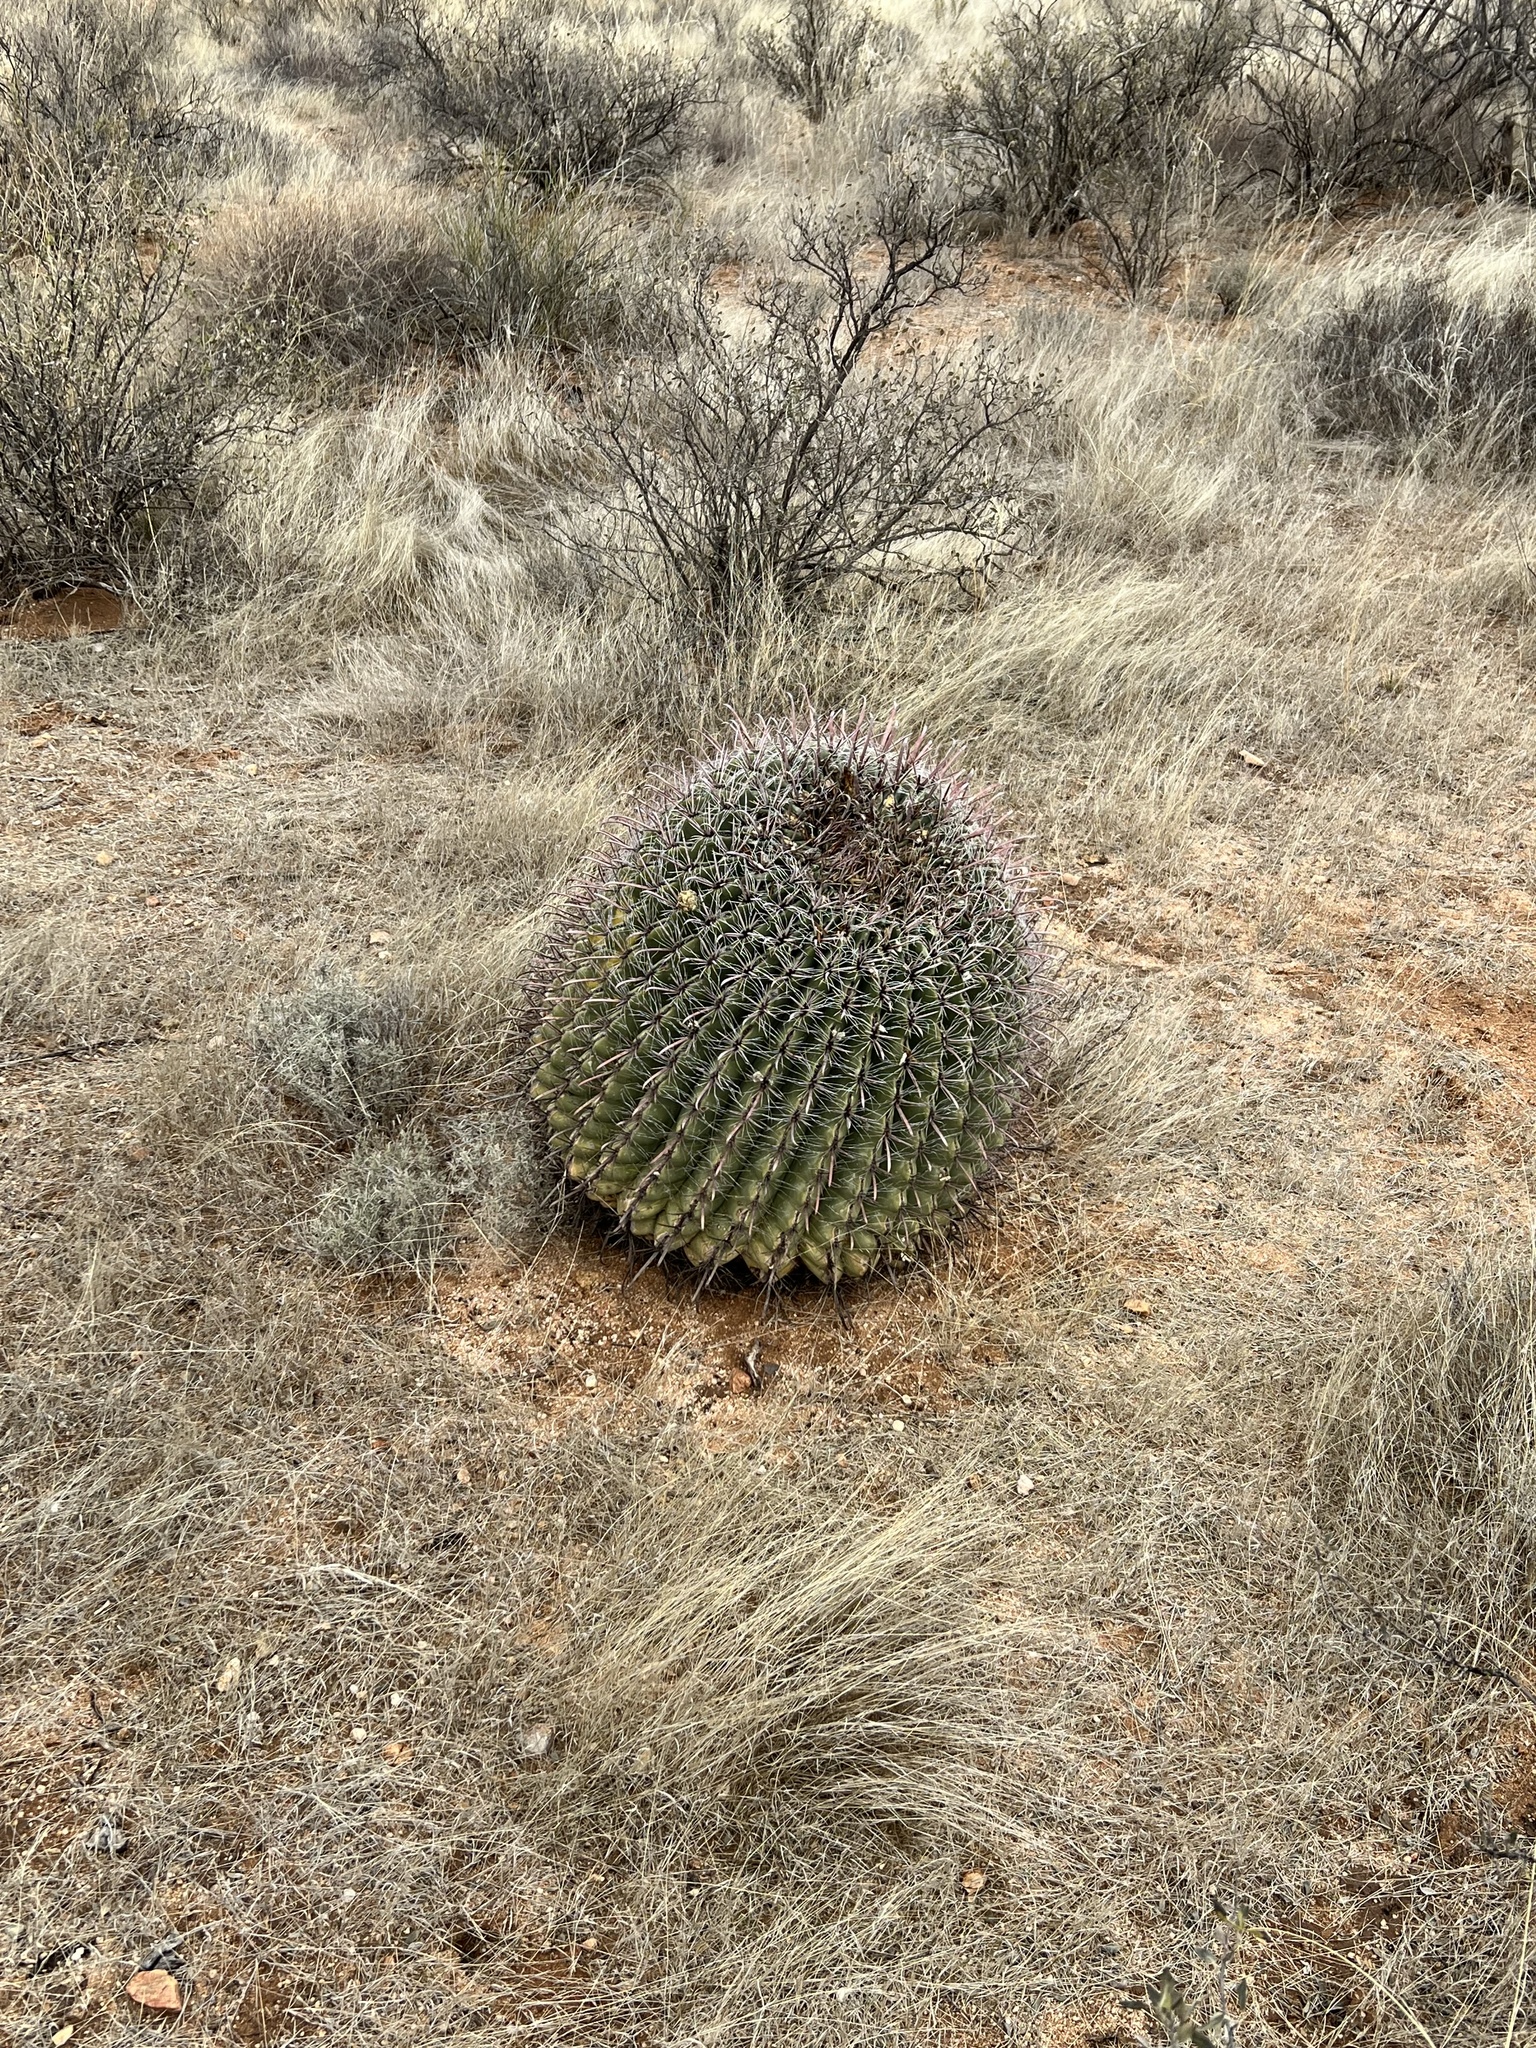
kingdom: Plantae
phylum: Tracheophyta
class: Magnoliopsida
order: Caryophyllales
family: Cactaceae
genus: Ferocactus
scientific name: Ferocactus wislizeni
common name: Candy barrel cactus
